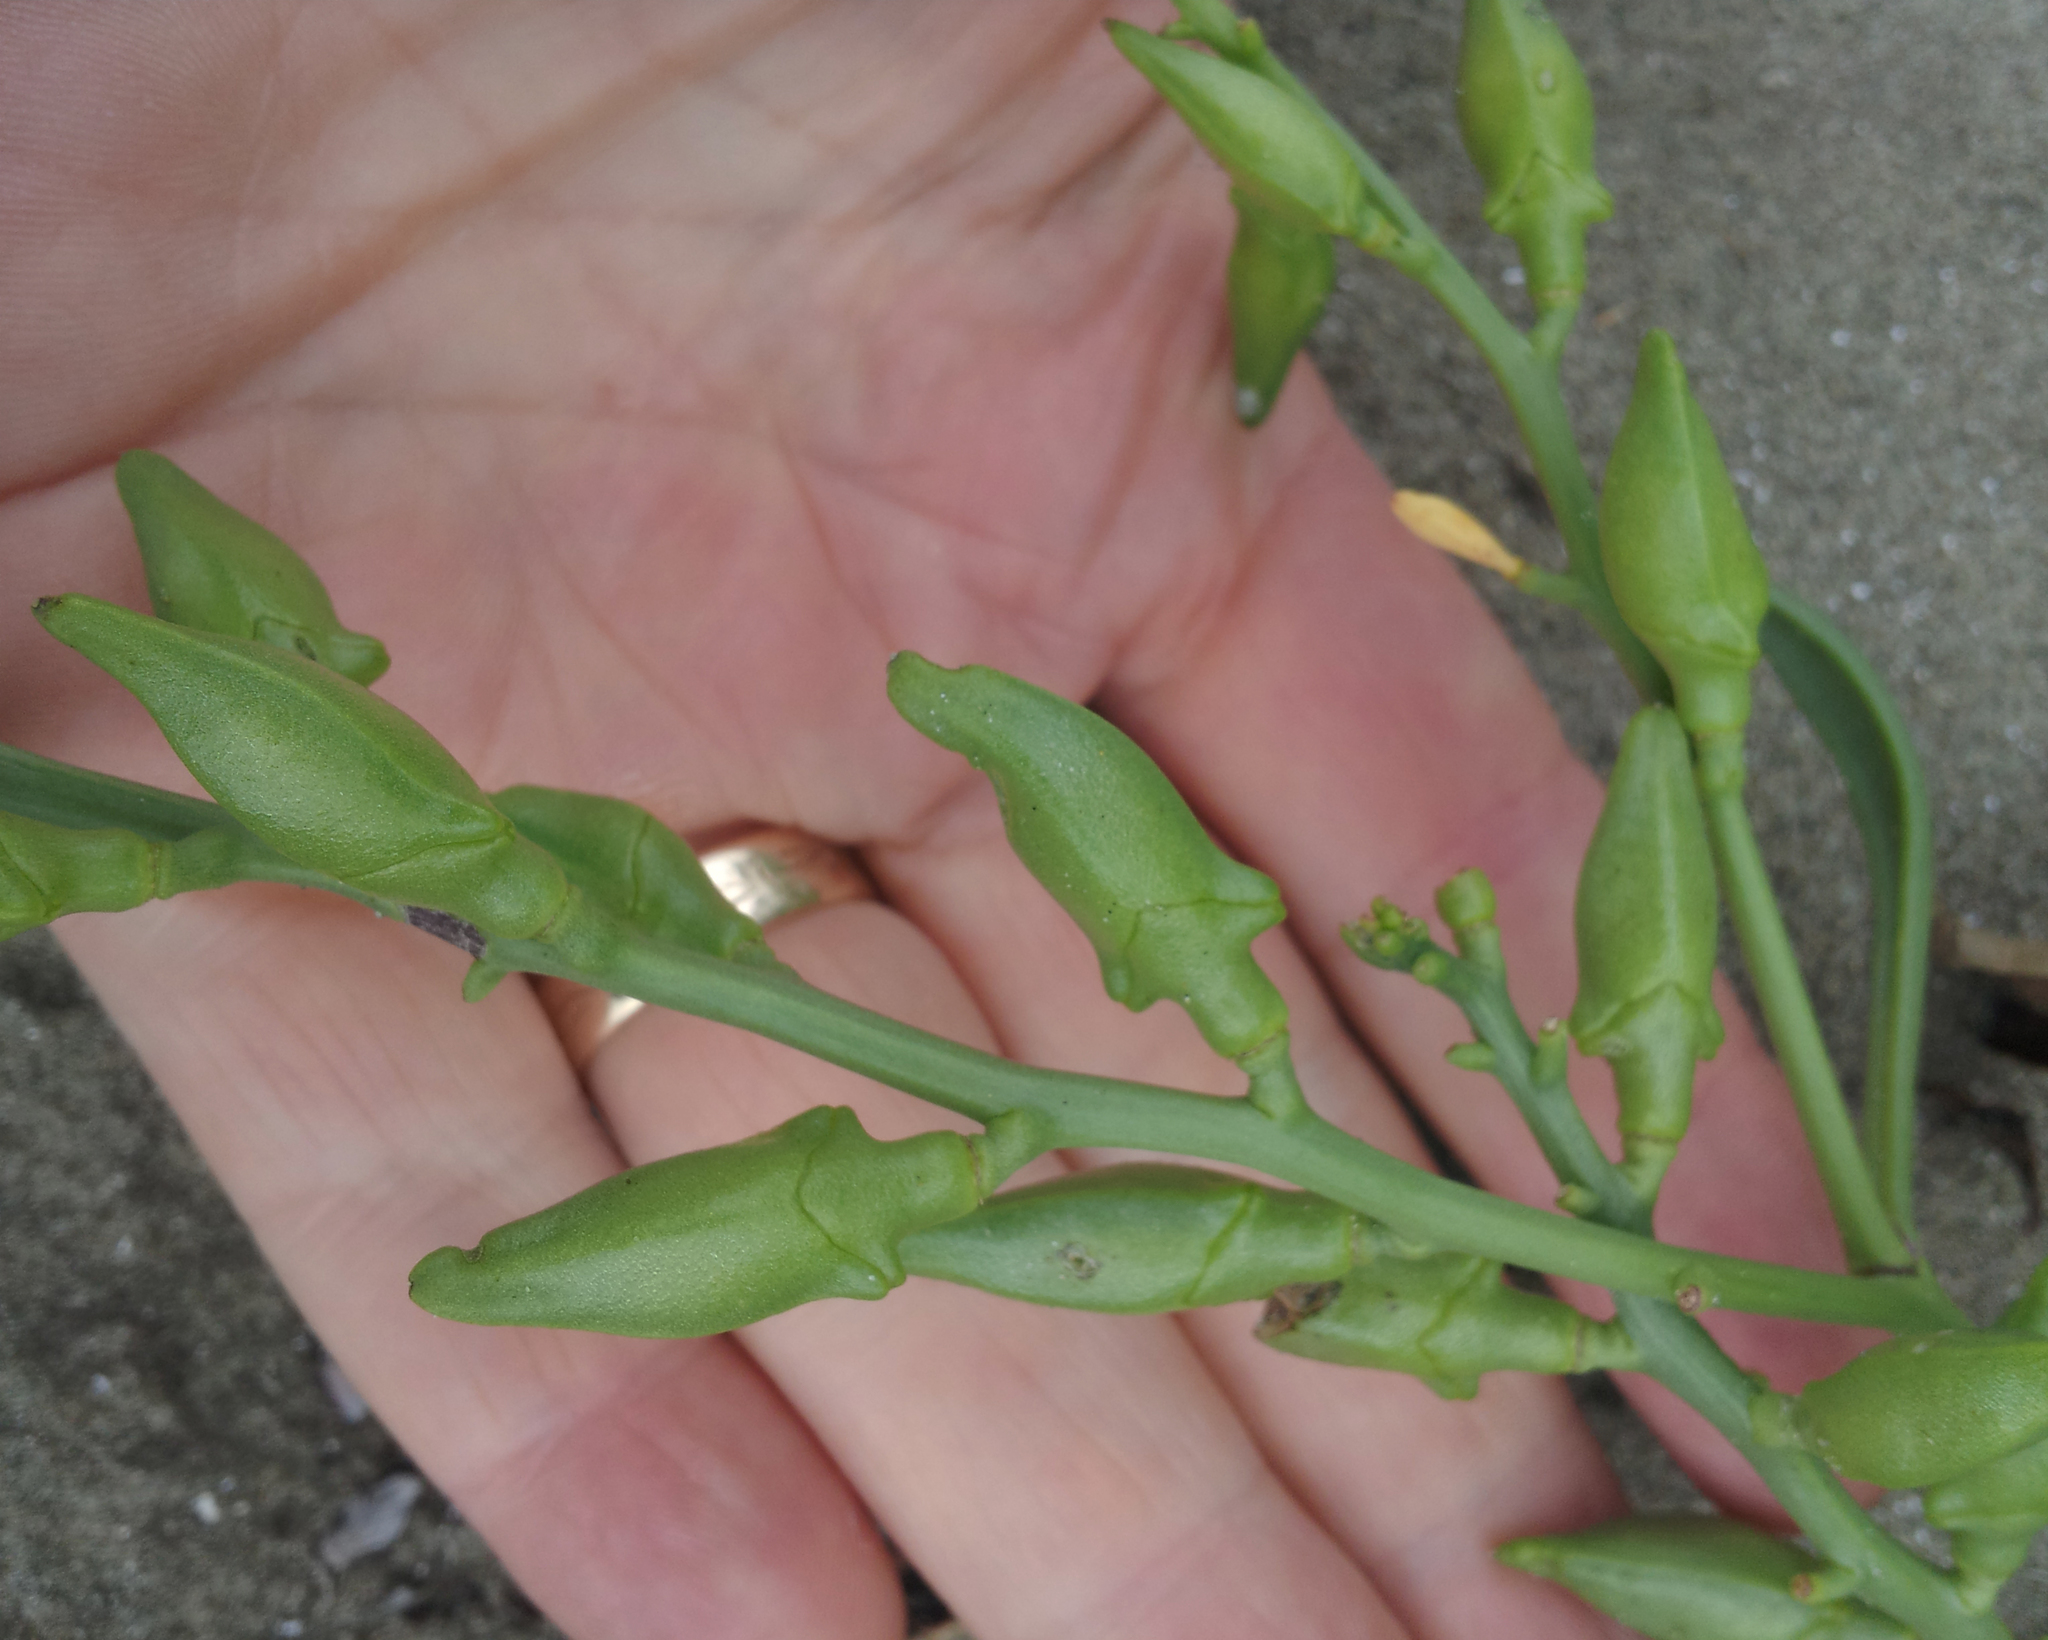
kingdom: Plantae
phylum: Tracheophyta
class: Magnoliopsida
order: Brassicales
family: Brassicaceae
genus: Cakile
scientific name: Cakile maritima
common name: Sea rocket
